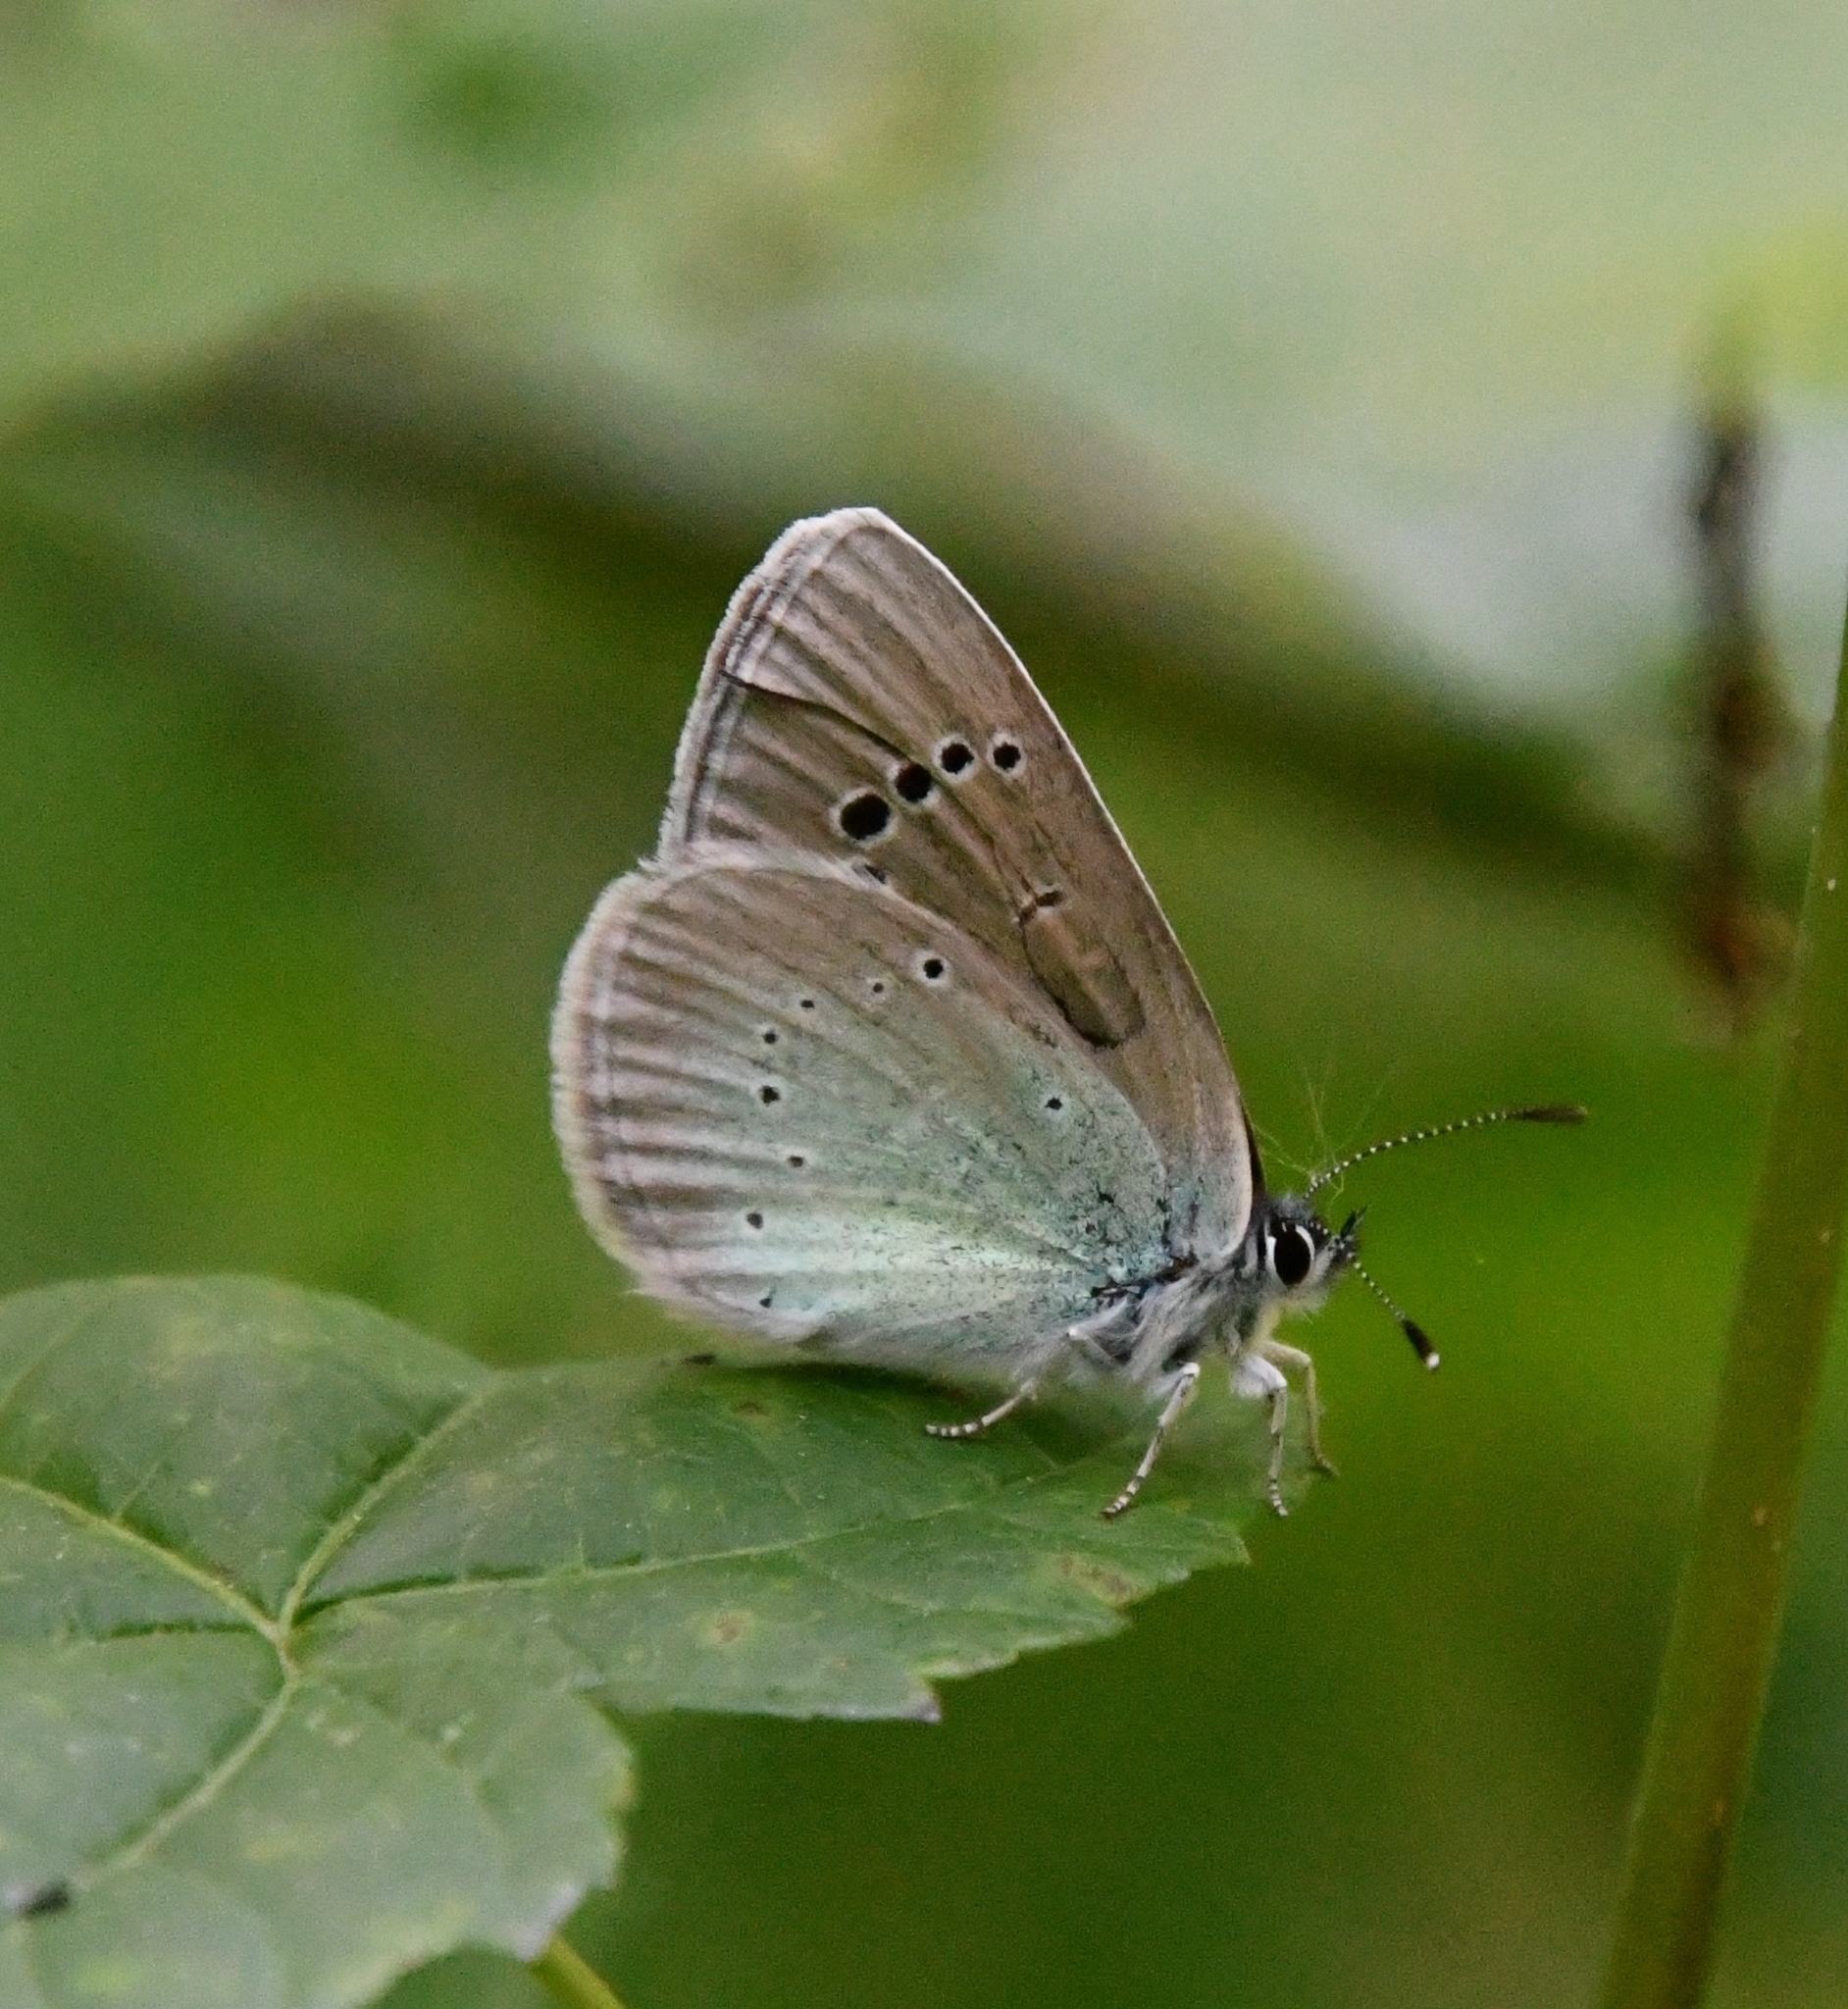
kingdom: Animalia
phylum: Arthropoda
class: Insecta
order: Lepidoptera
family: Lycaenidae
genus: Glaucopsyche
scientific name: Glaucopsyche alexis
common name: Green-underside blue
